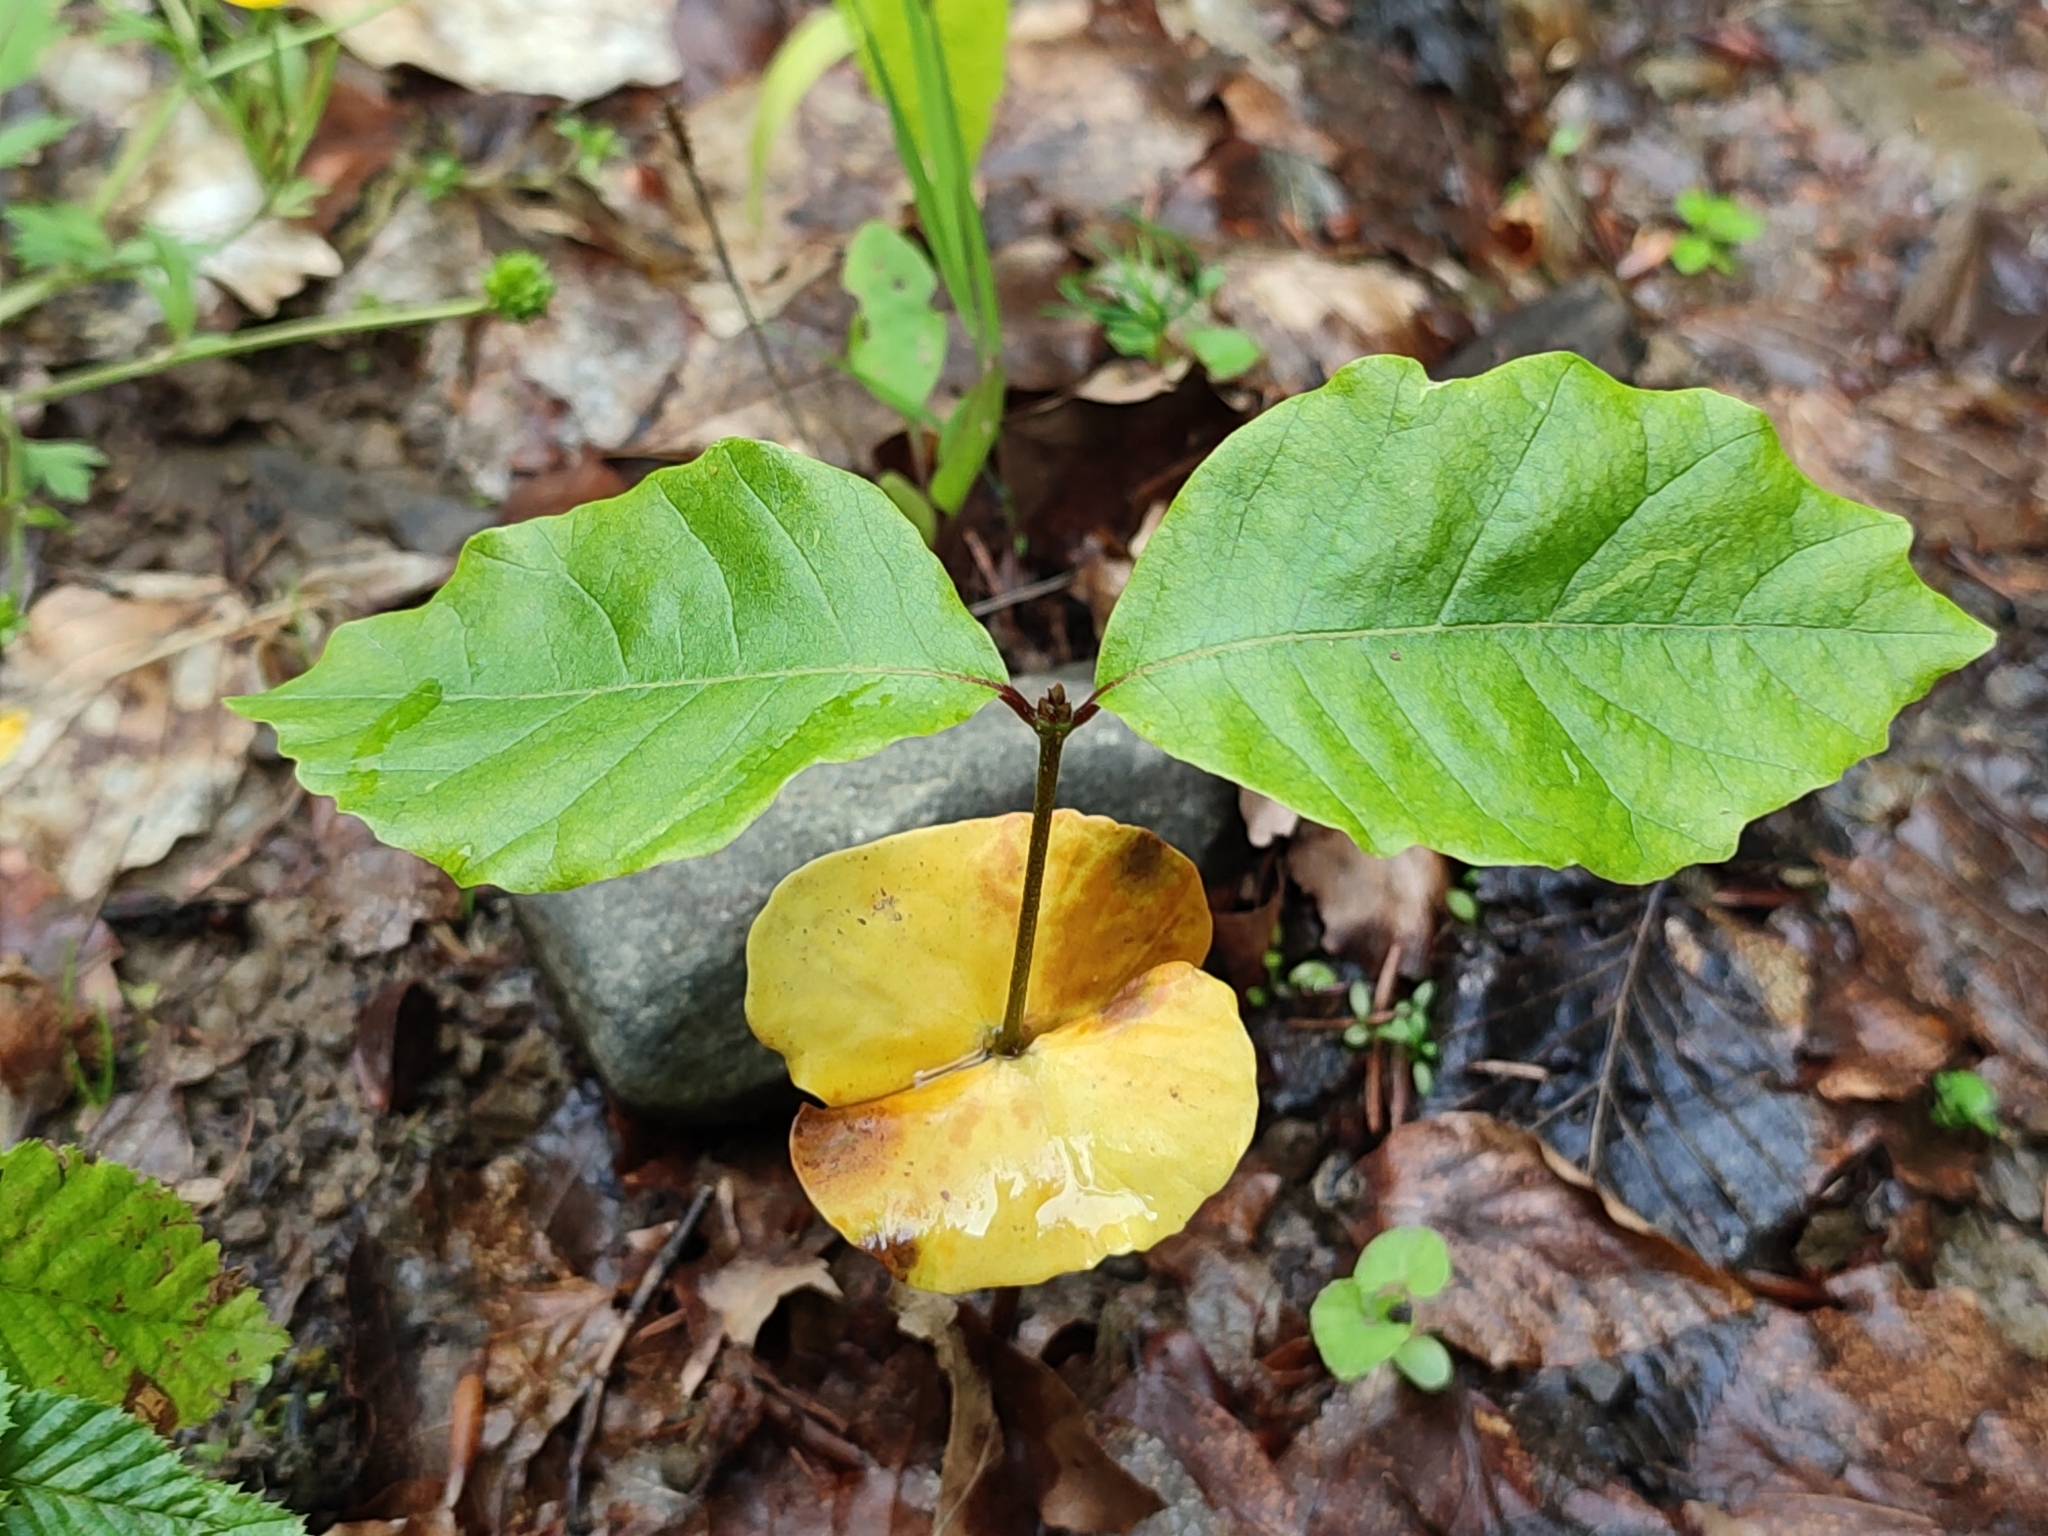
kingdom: Plantae
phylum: Tracheophyta
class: Magnoliopsida
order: Fagales
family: Fagaceae
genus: Fagus
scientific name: Fagus sylvatica
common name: Beech
